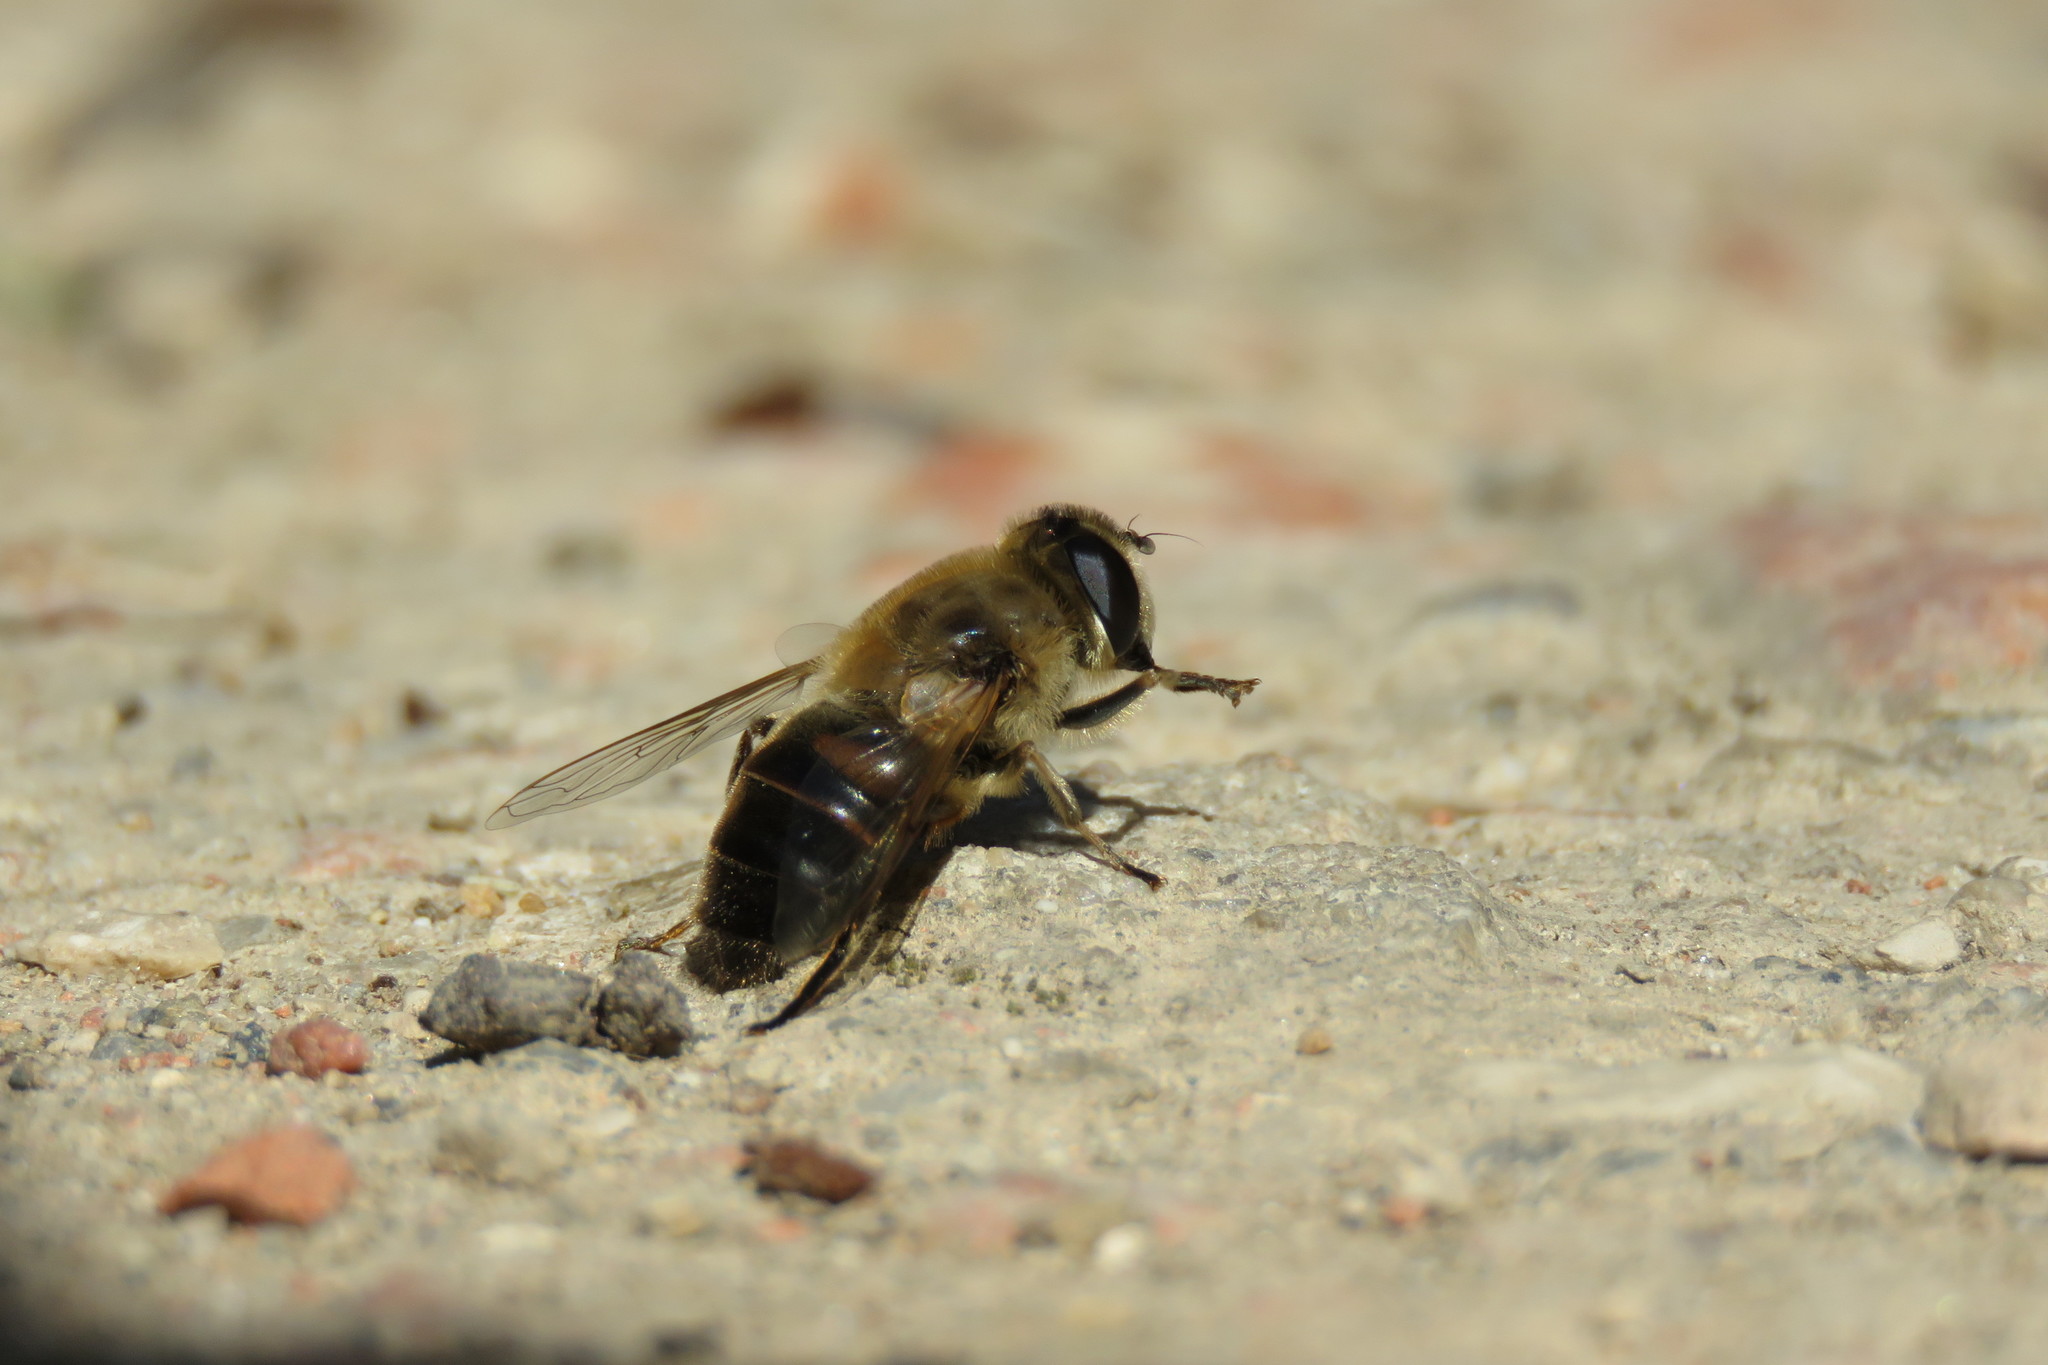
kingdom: Animalia
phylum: Arthropoda
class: Insecta
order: Diptera
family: Syrphidae
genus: Eristalis
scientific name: Eristalis tenax
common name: Drone fly
